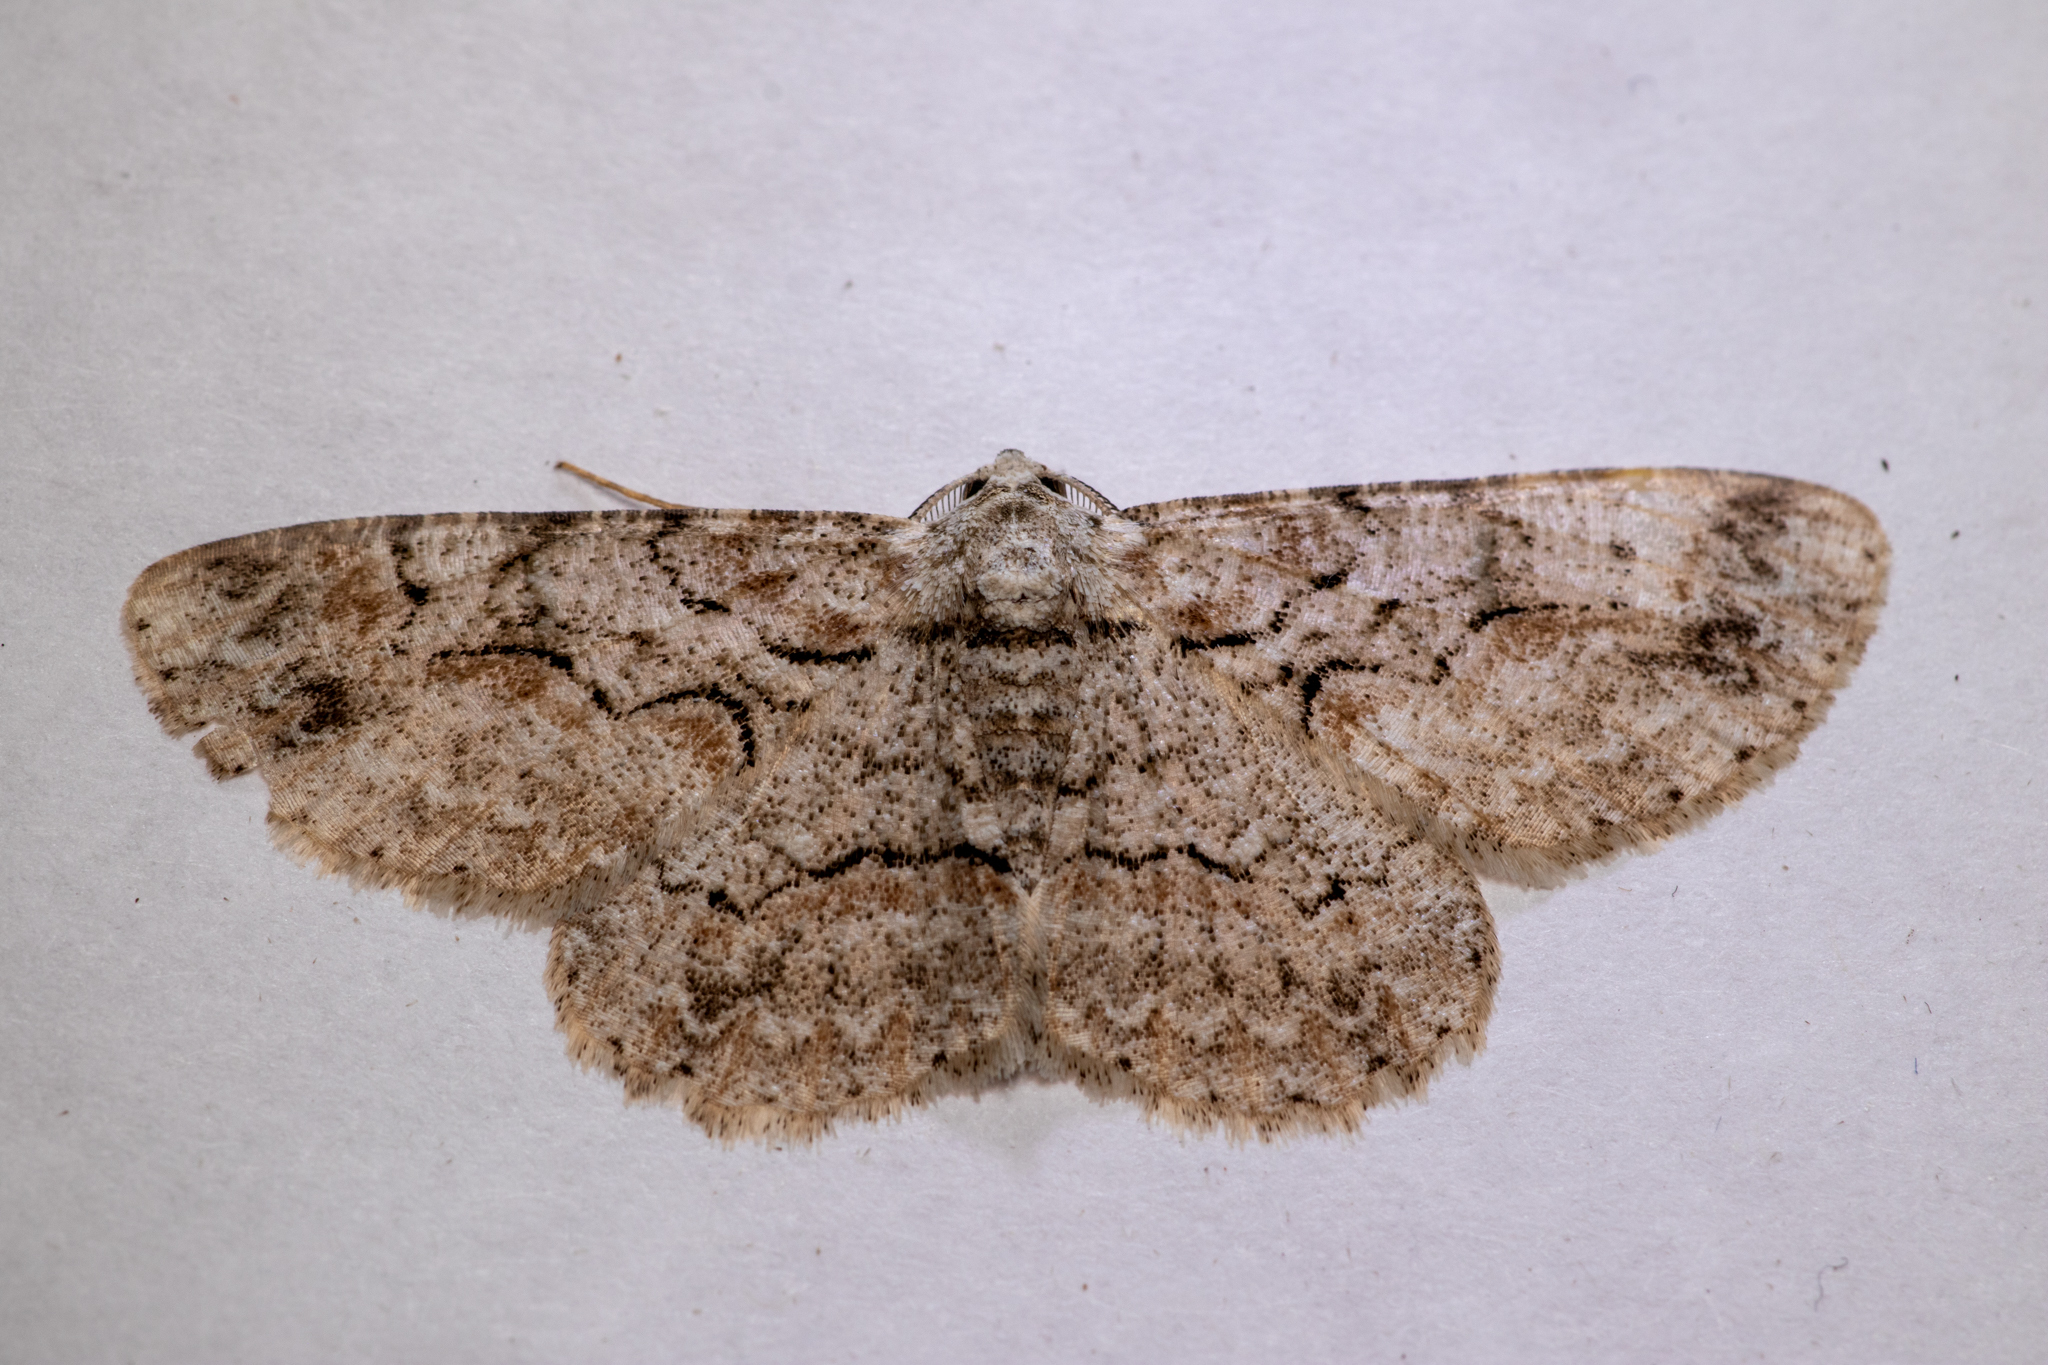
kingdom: Animalia
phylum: Arthropoda
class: Insecta
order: Lepidoptera
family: Geometridae
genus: Iridopsis
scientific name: Iridopsis defectaria
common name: Brown-shaded gray
